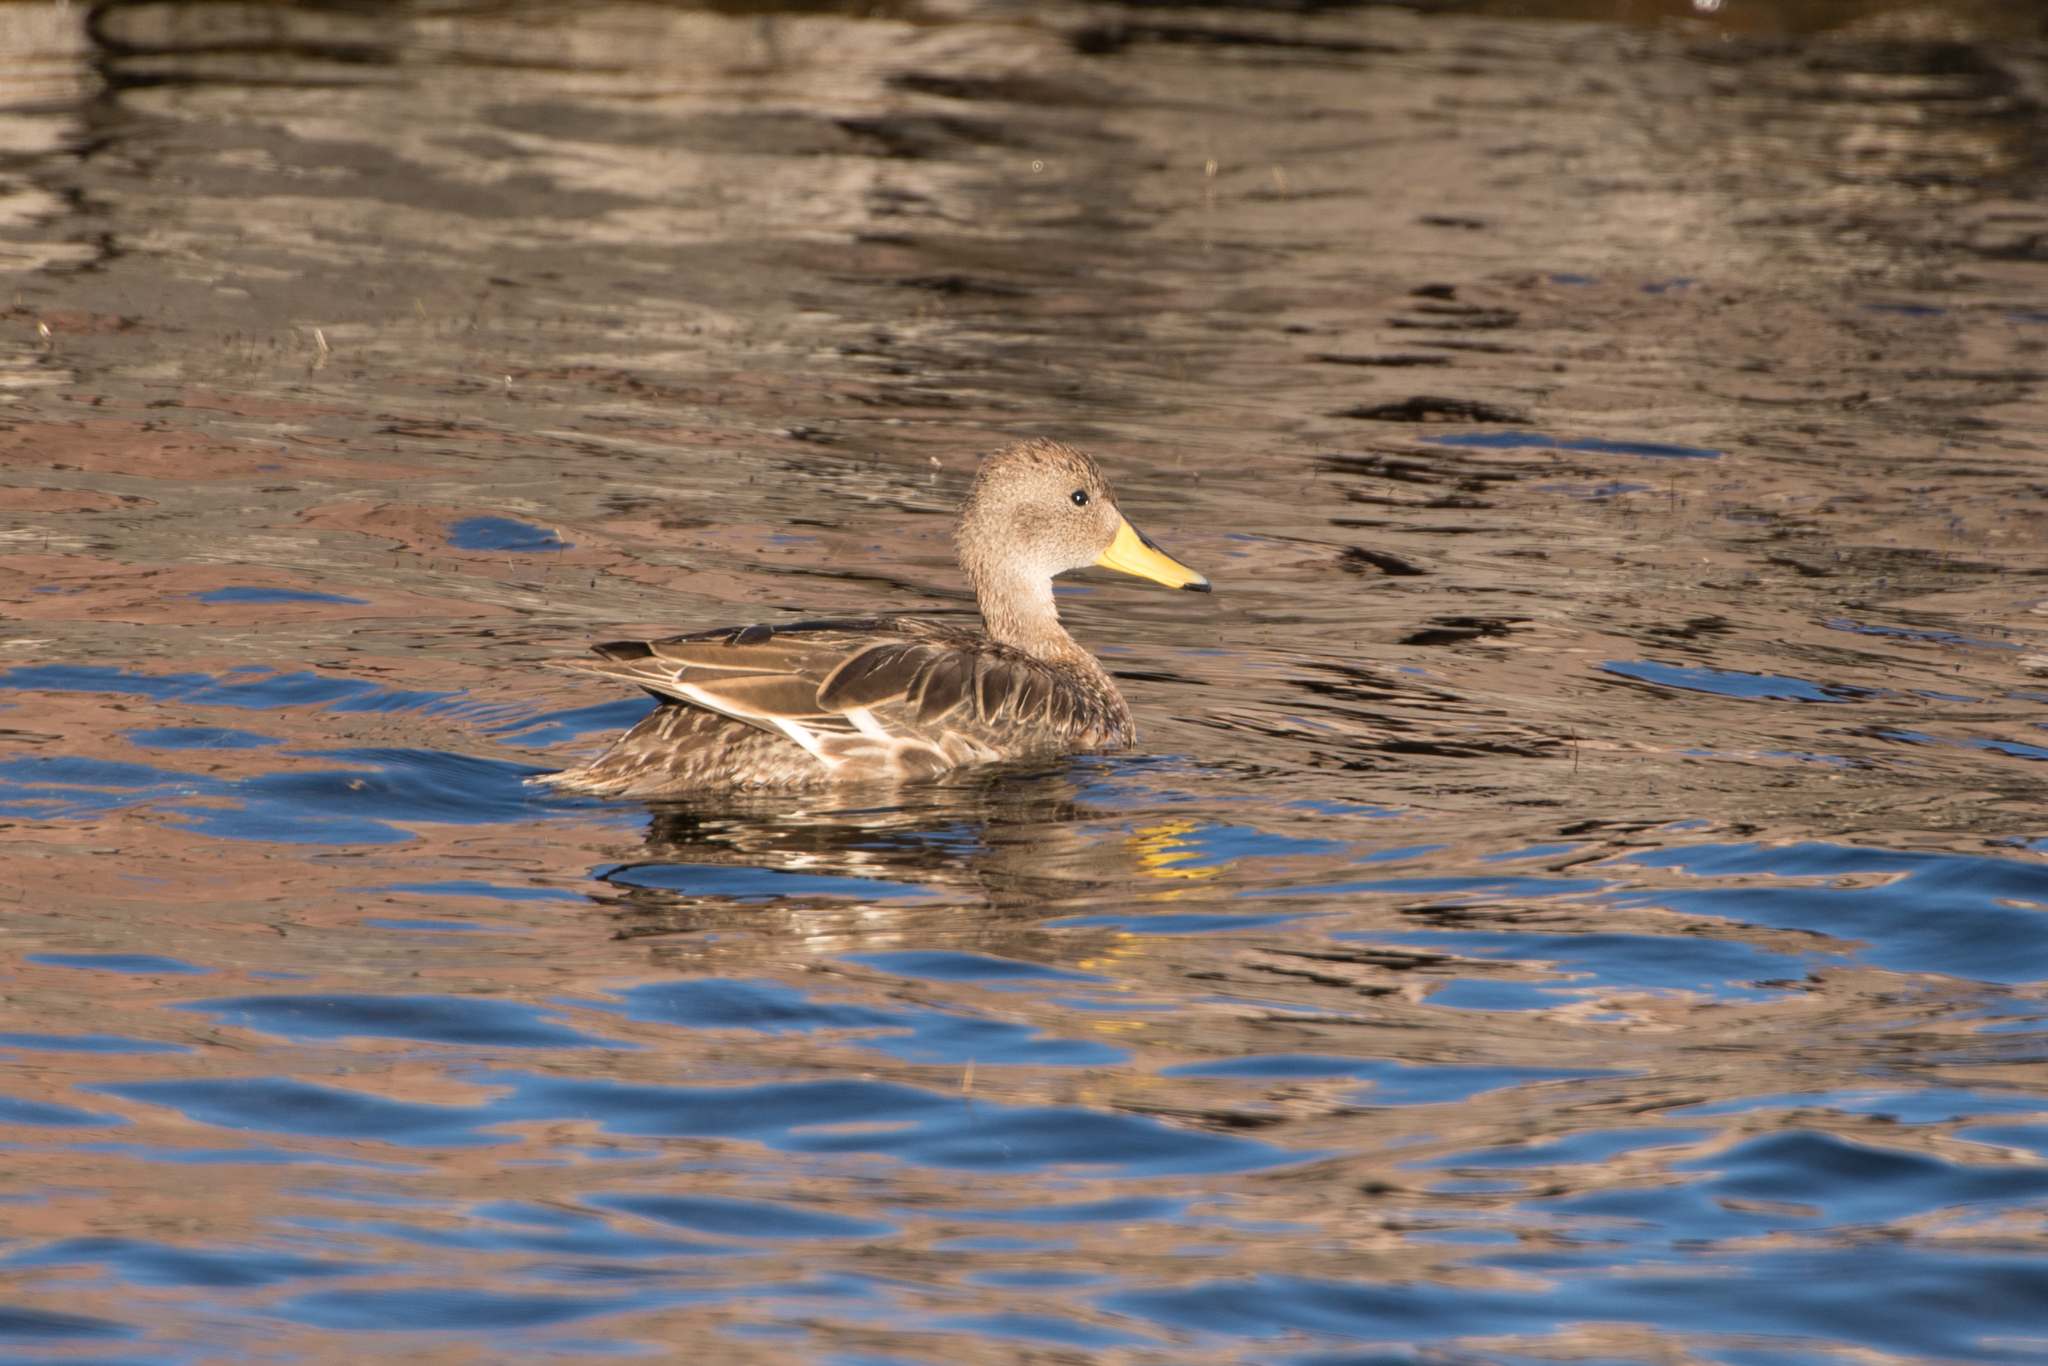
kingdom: Animalia
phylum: Chordata
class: Aves
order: Anseriformes
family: Anatidae
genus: Anas
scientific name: Anas georgica
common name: Yellow-billed pintail
